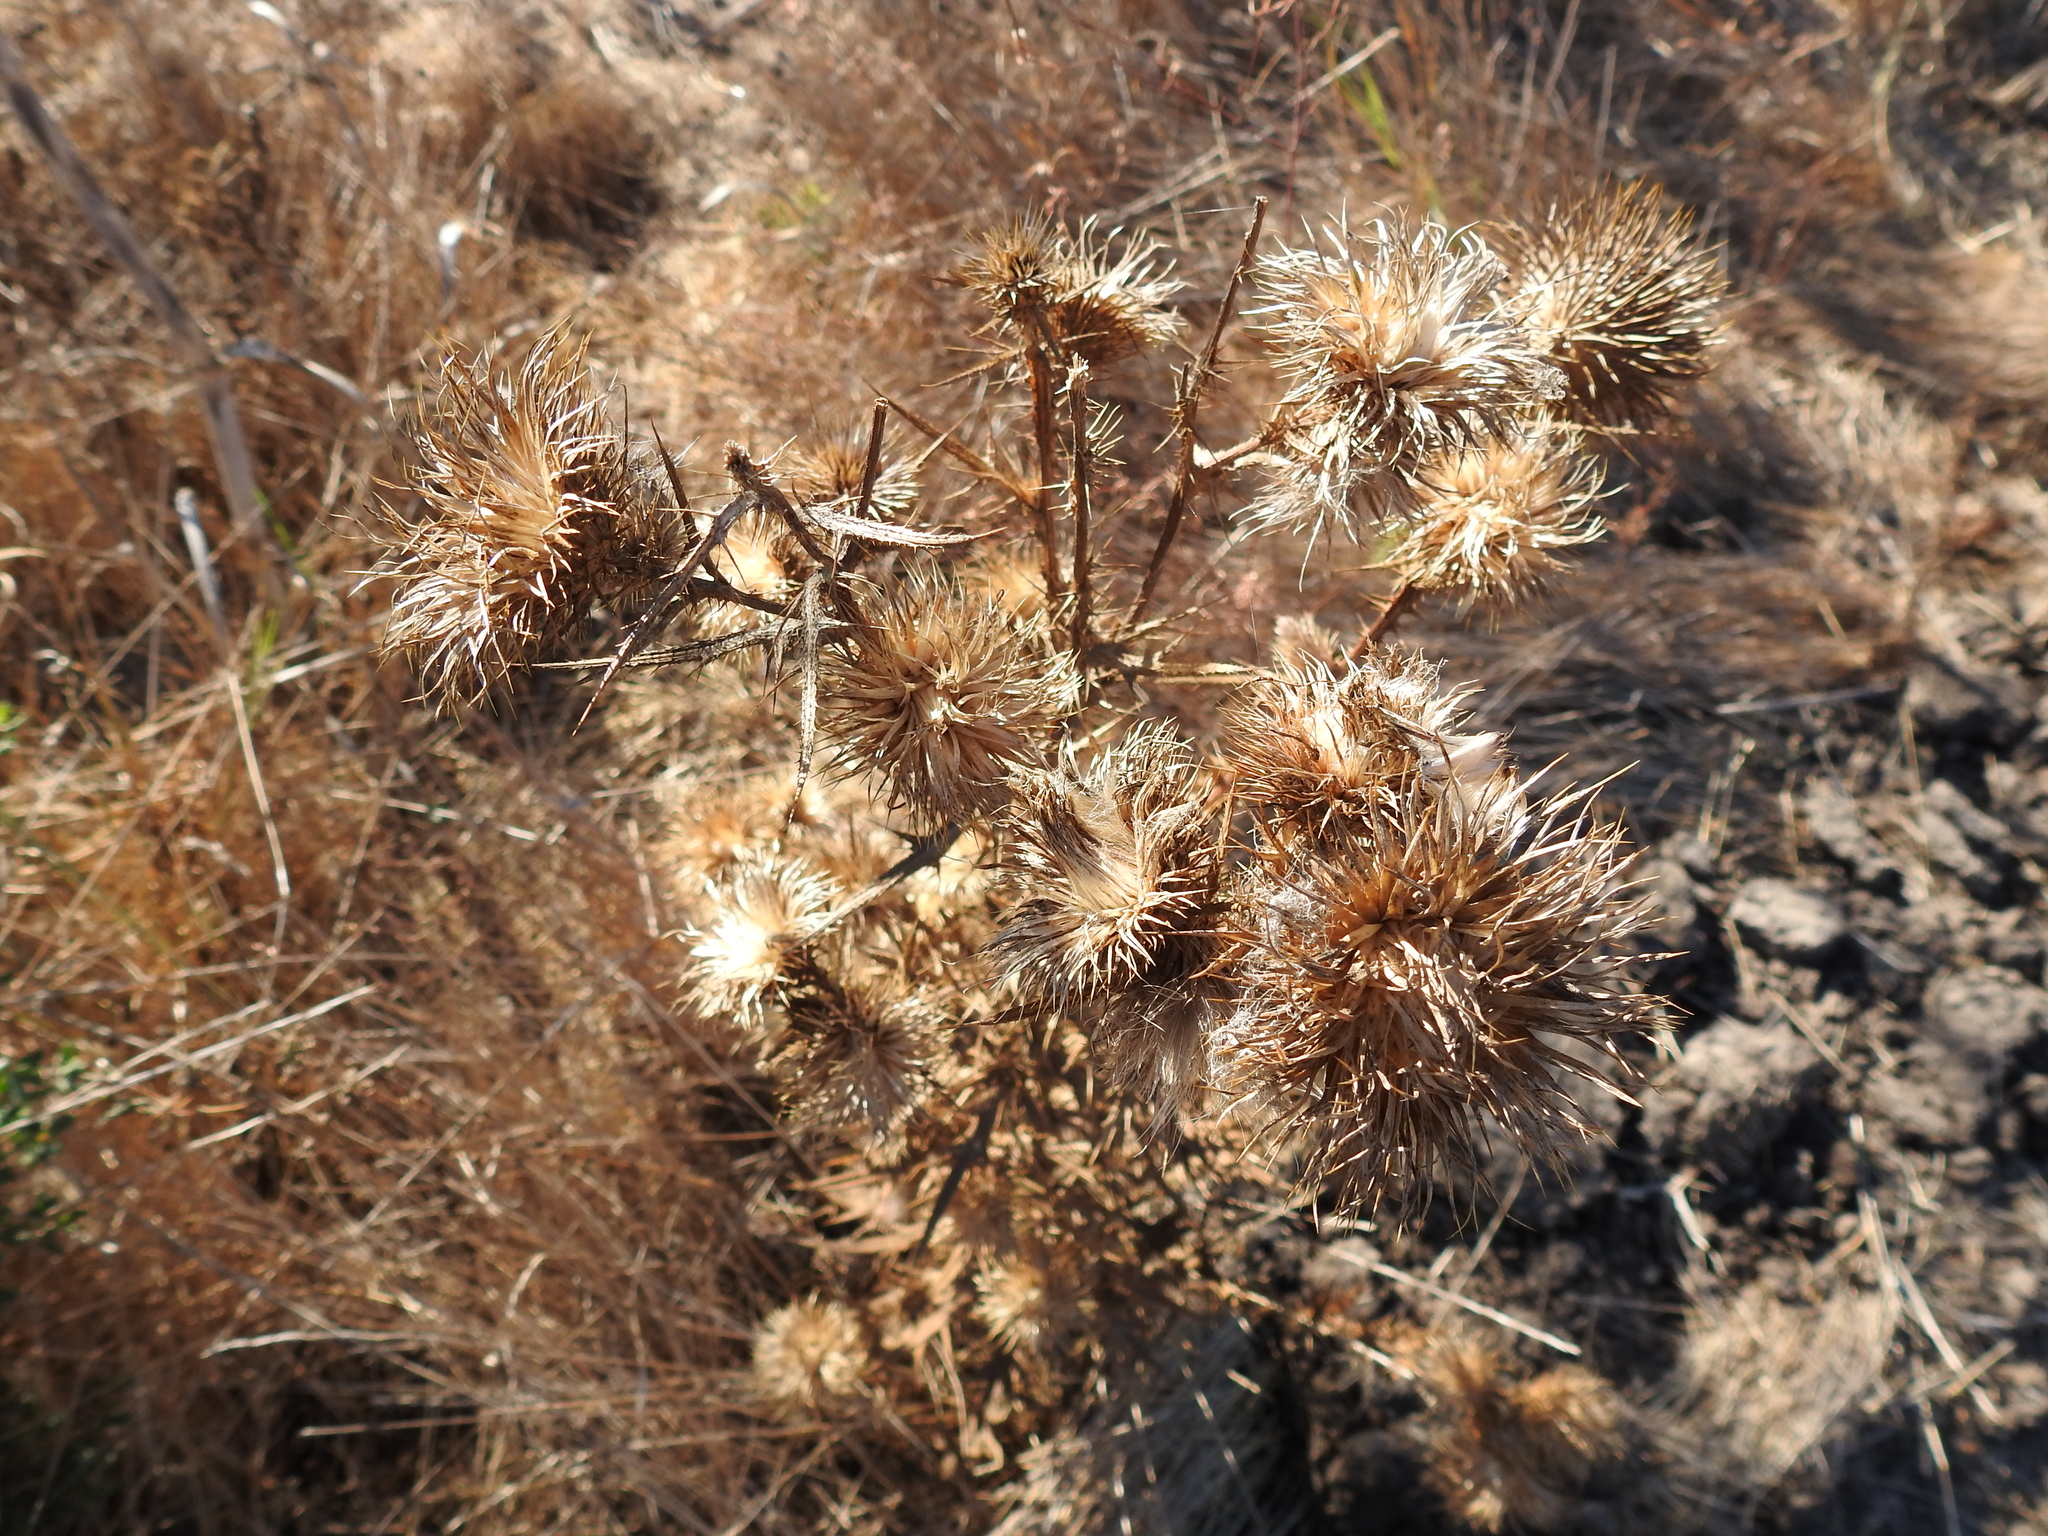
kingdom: Plantae
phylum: Tracheophyta
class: Magnoliopsida
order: Asterales
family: Asteraceae
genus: Cirsium
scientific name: Cirsium vulgare
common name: Bull thistle
